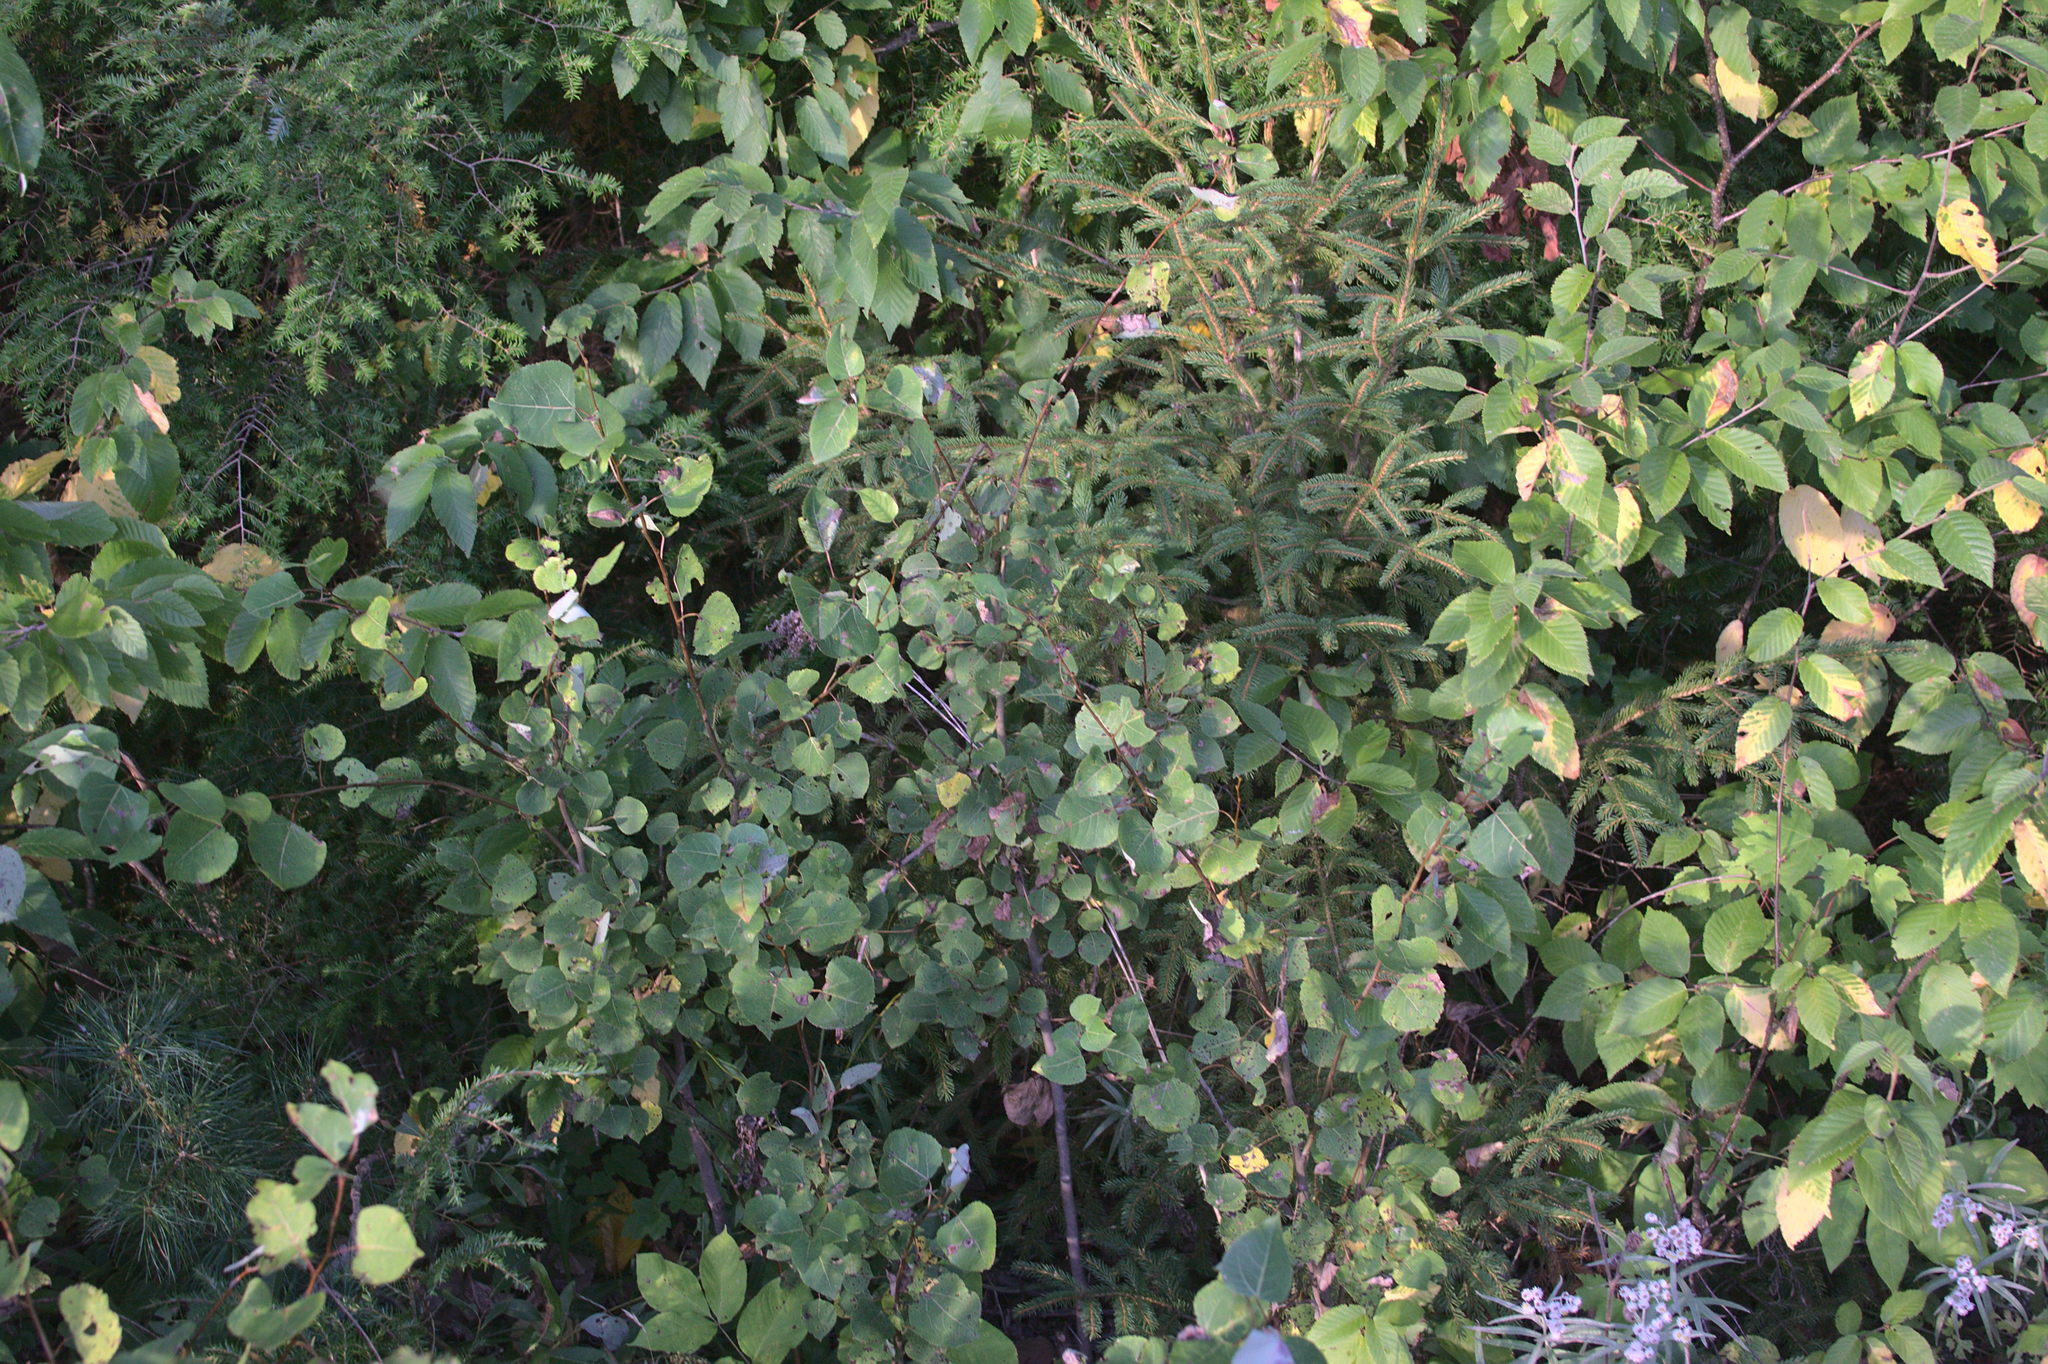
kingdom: Plantae
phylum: Tracheophyta
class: Magnoliopsida
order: Malpighiales
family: Salicaceae
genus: Populus
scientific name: Populus tremuloides
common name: Quaking aspen
